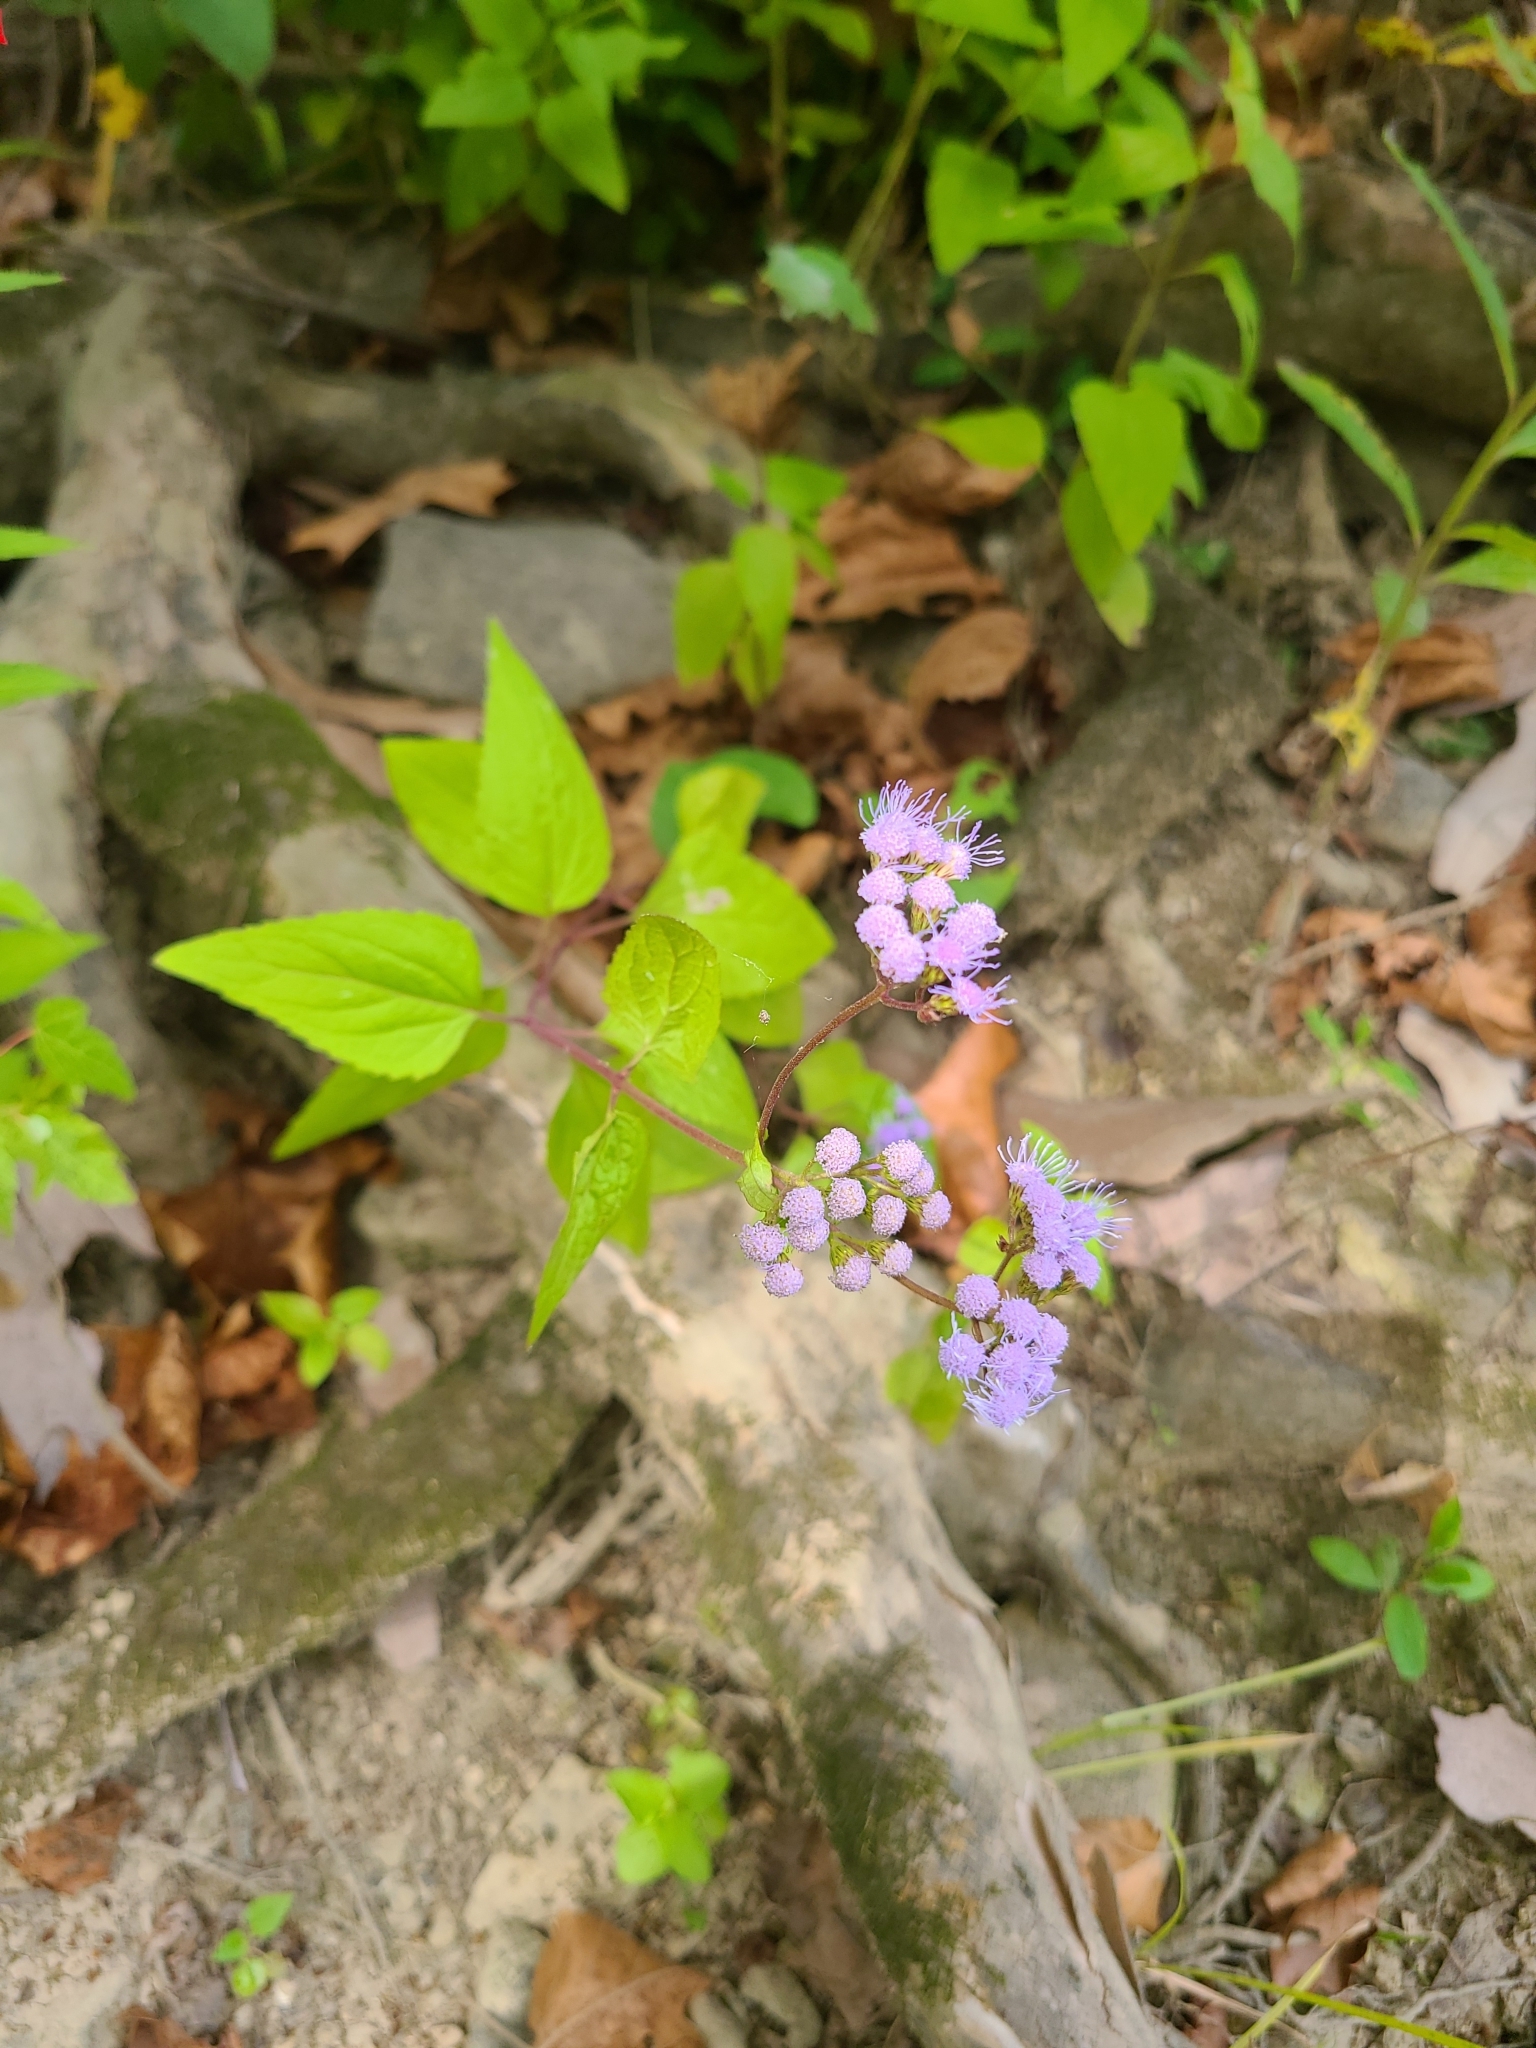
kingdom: Plantae
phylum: Tracheophyta
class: Magnoliopsida
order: Asterales
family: Asteraceae
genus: Conoclinium
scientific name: Conoclinium coelestinum
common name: Blue mistflower
